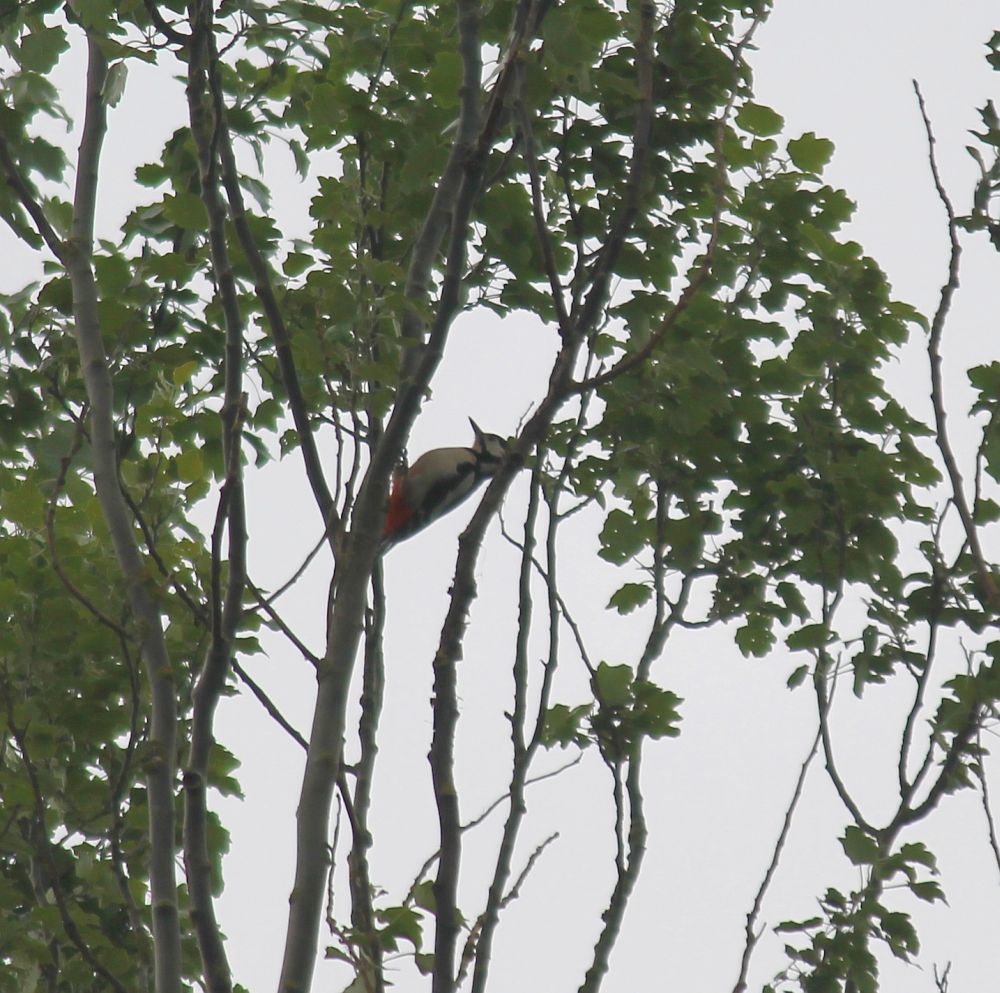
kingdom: Animalia
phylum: Chordata
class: Aves
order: Piciformes
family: Picidae
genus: Dendrocopos
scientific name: Dendrocopos major
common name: Great spotted woodpecker
